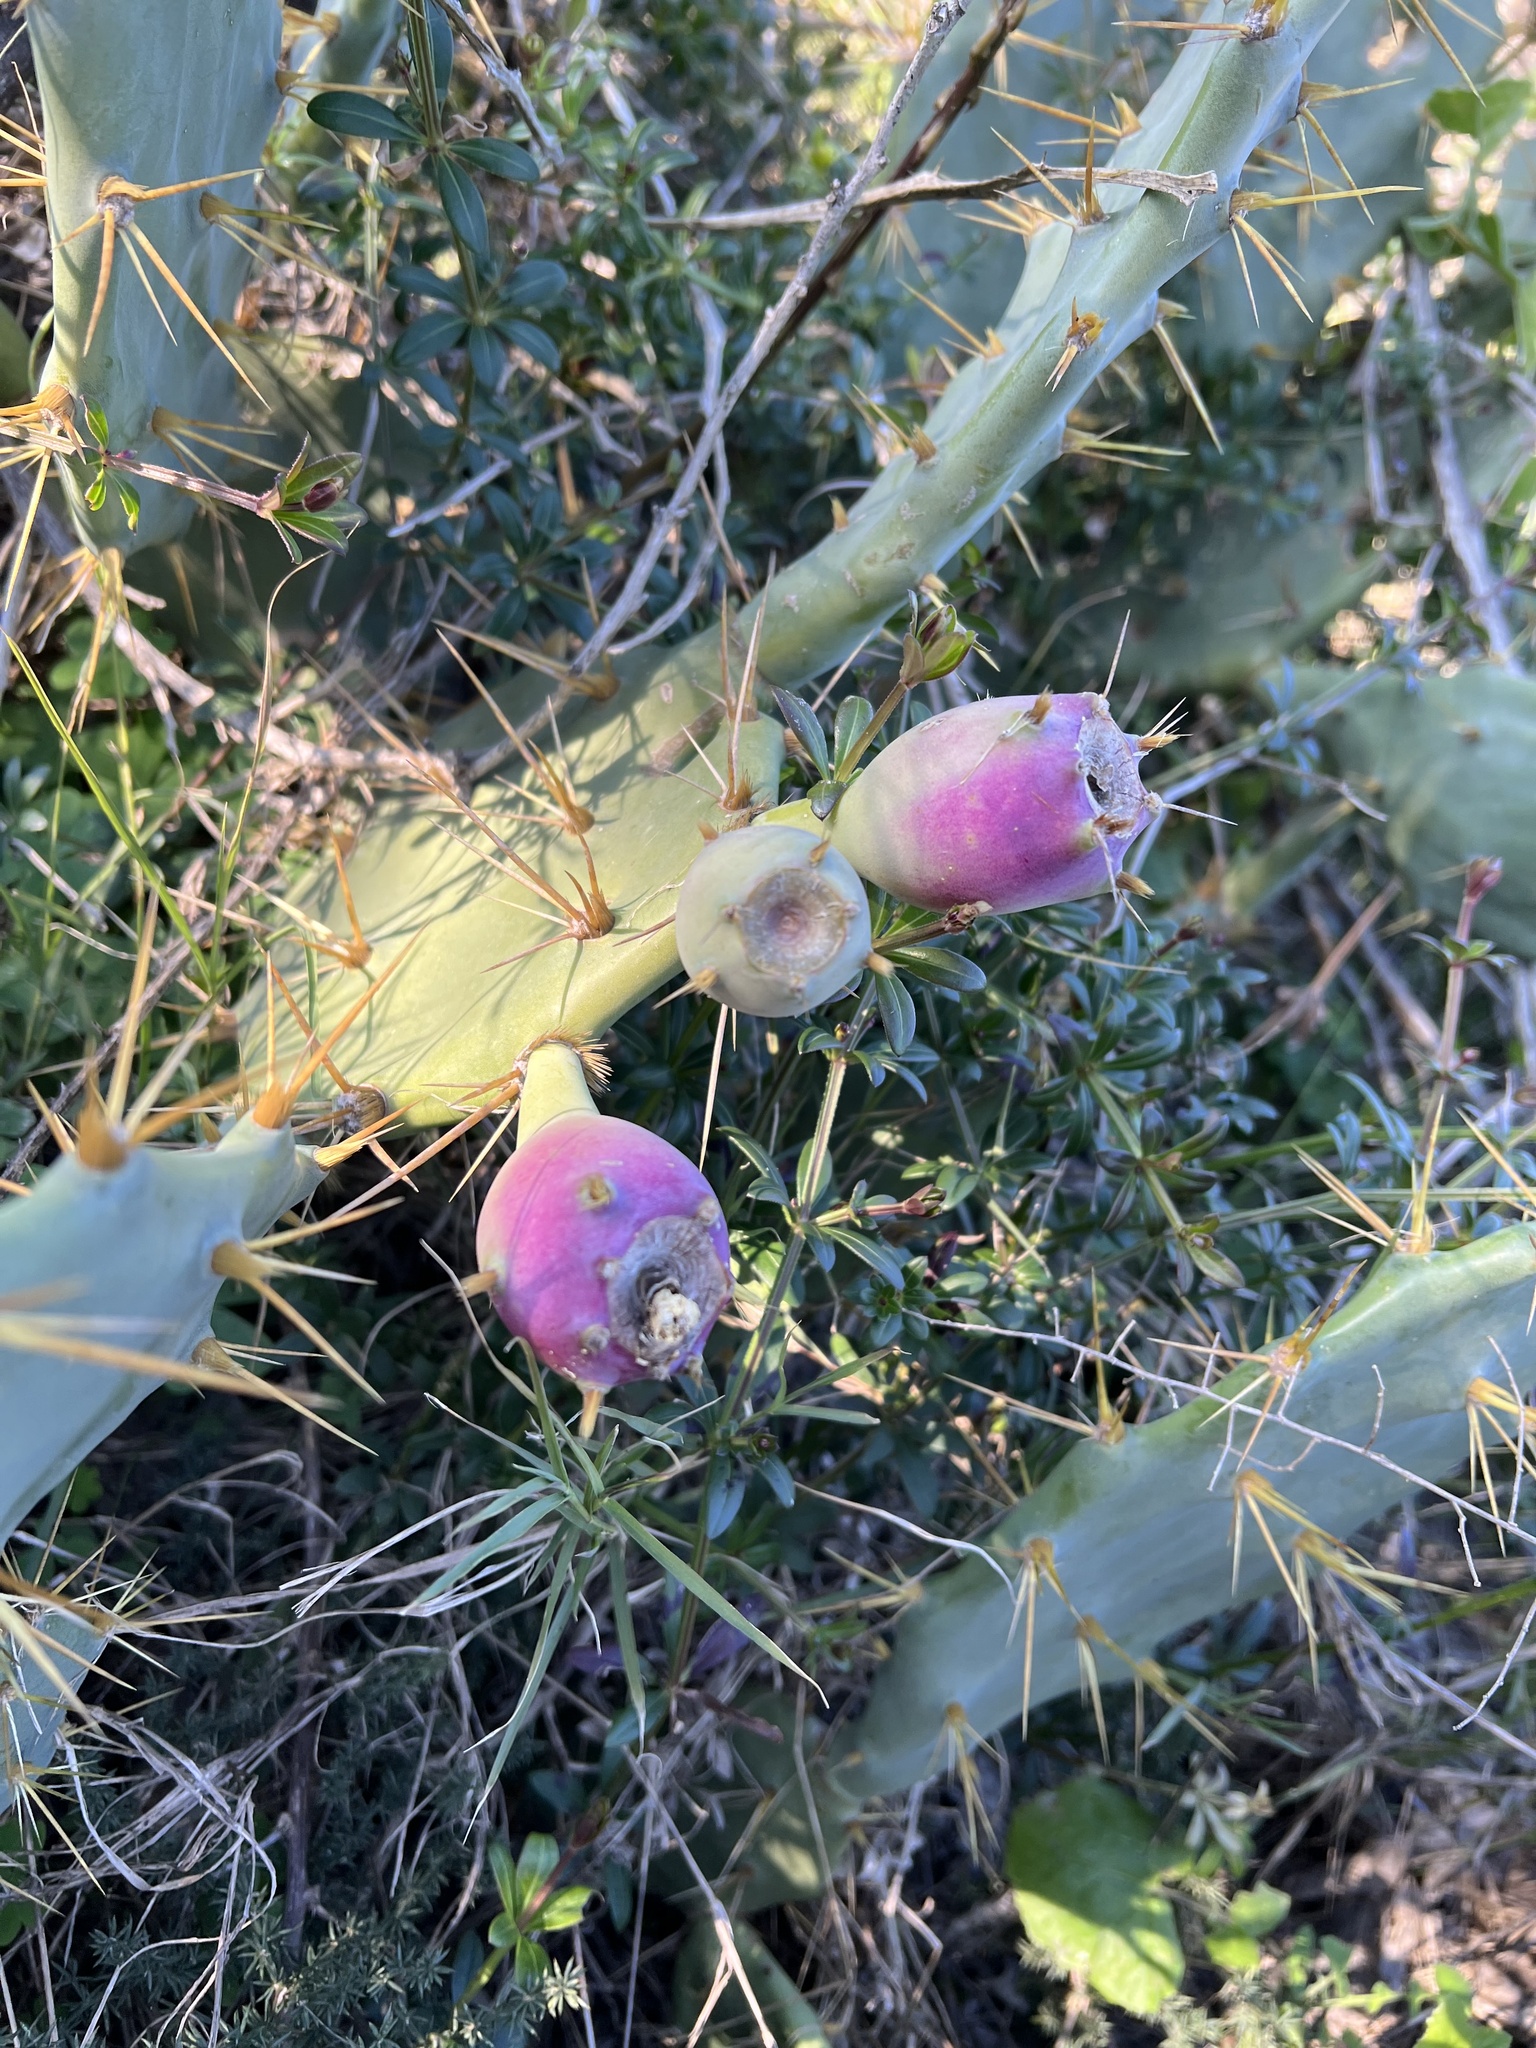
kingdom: Plantae
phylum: Tracheophyta
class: Magnoliopsida
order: Caryophyllales
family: Cactaceae
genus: Opuntia
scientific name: Opuntia stricta
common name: Erect pricklypear
